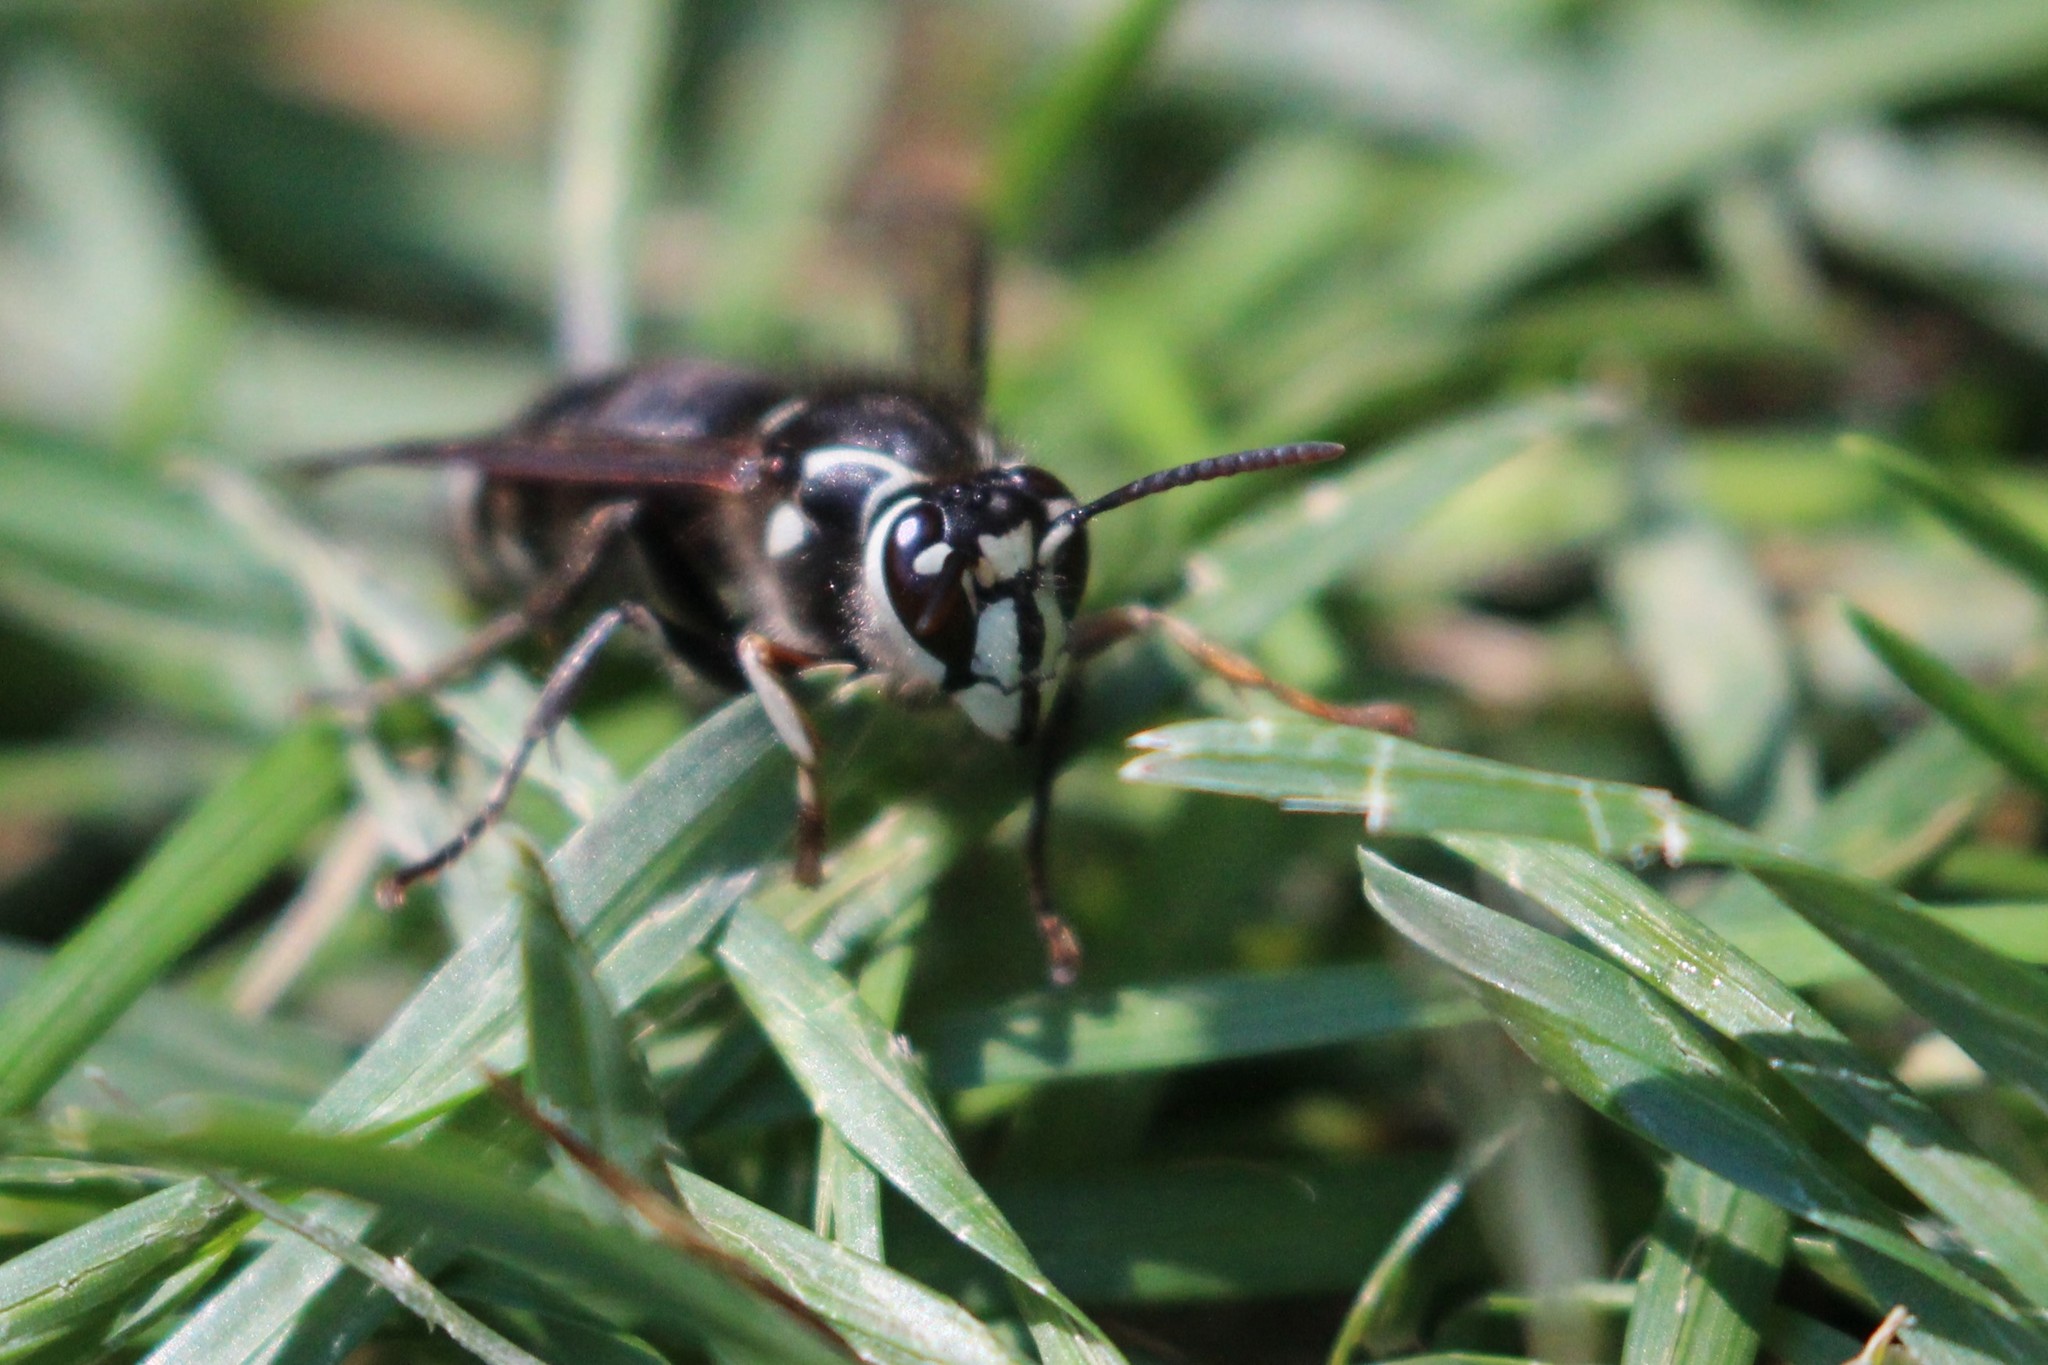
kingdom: Animalia
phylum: Arthropoda
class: Insecta
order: Hymenoptera
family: Vespidae
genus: Dolichovespula
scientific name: Dolichovespula maculata
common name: Bald-faced hornet
